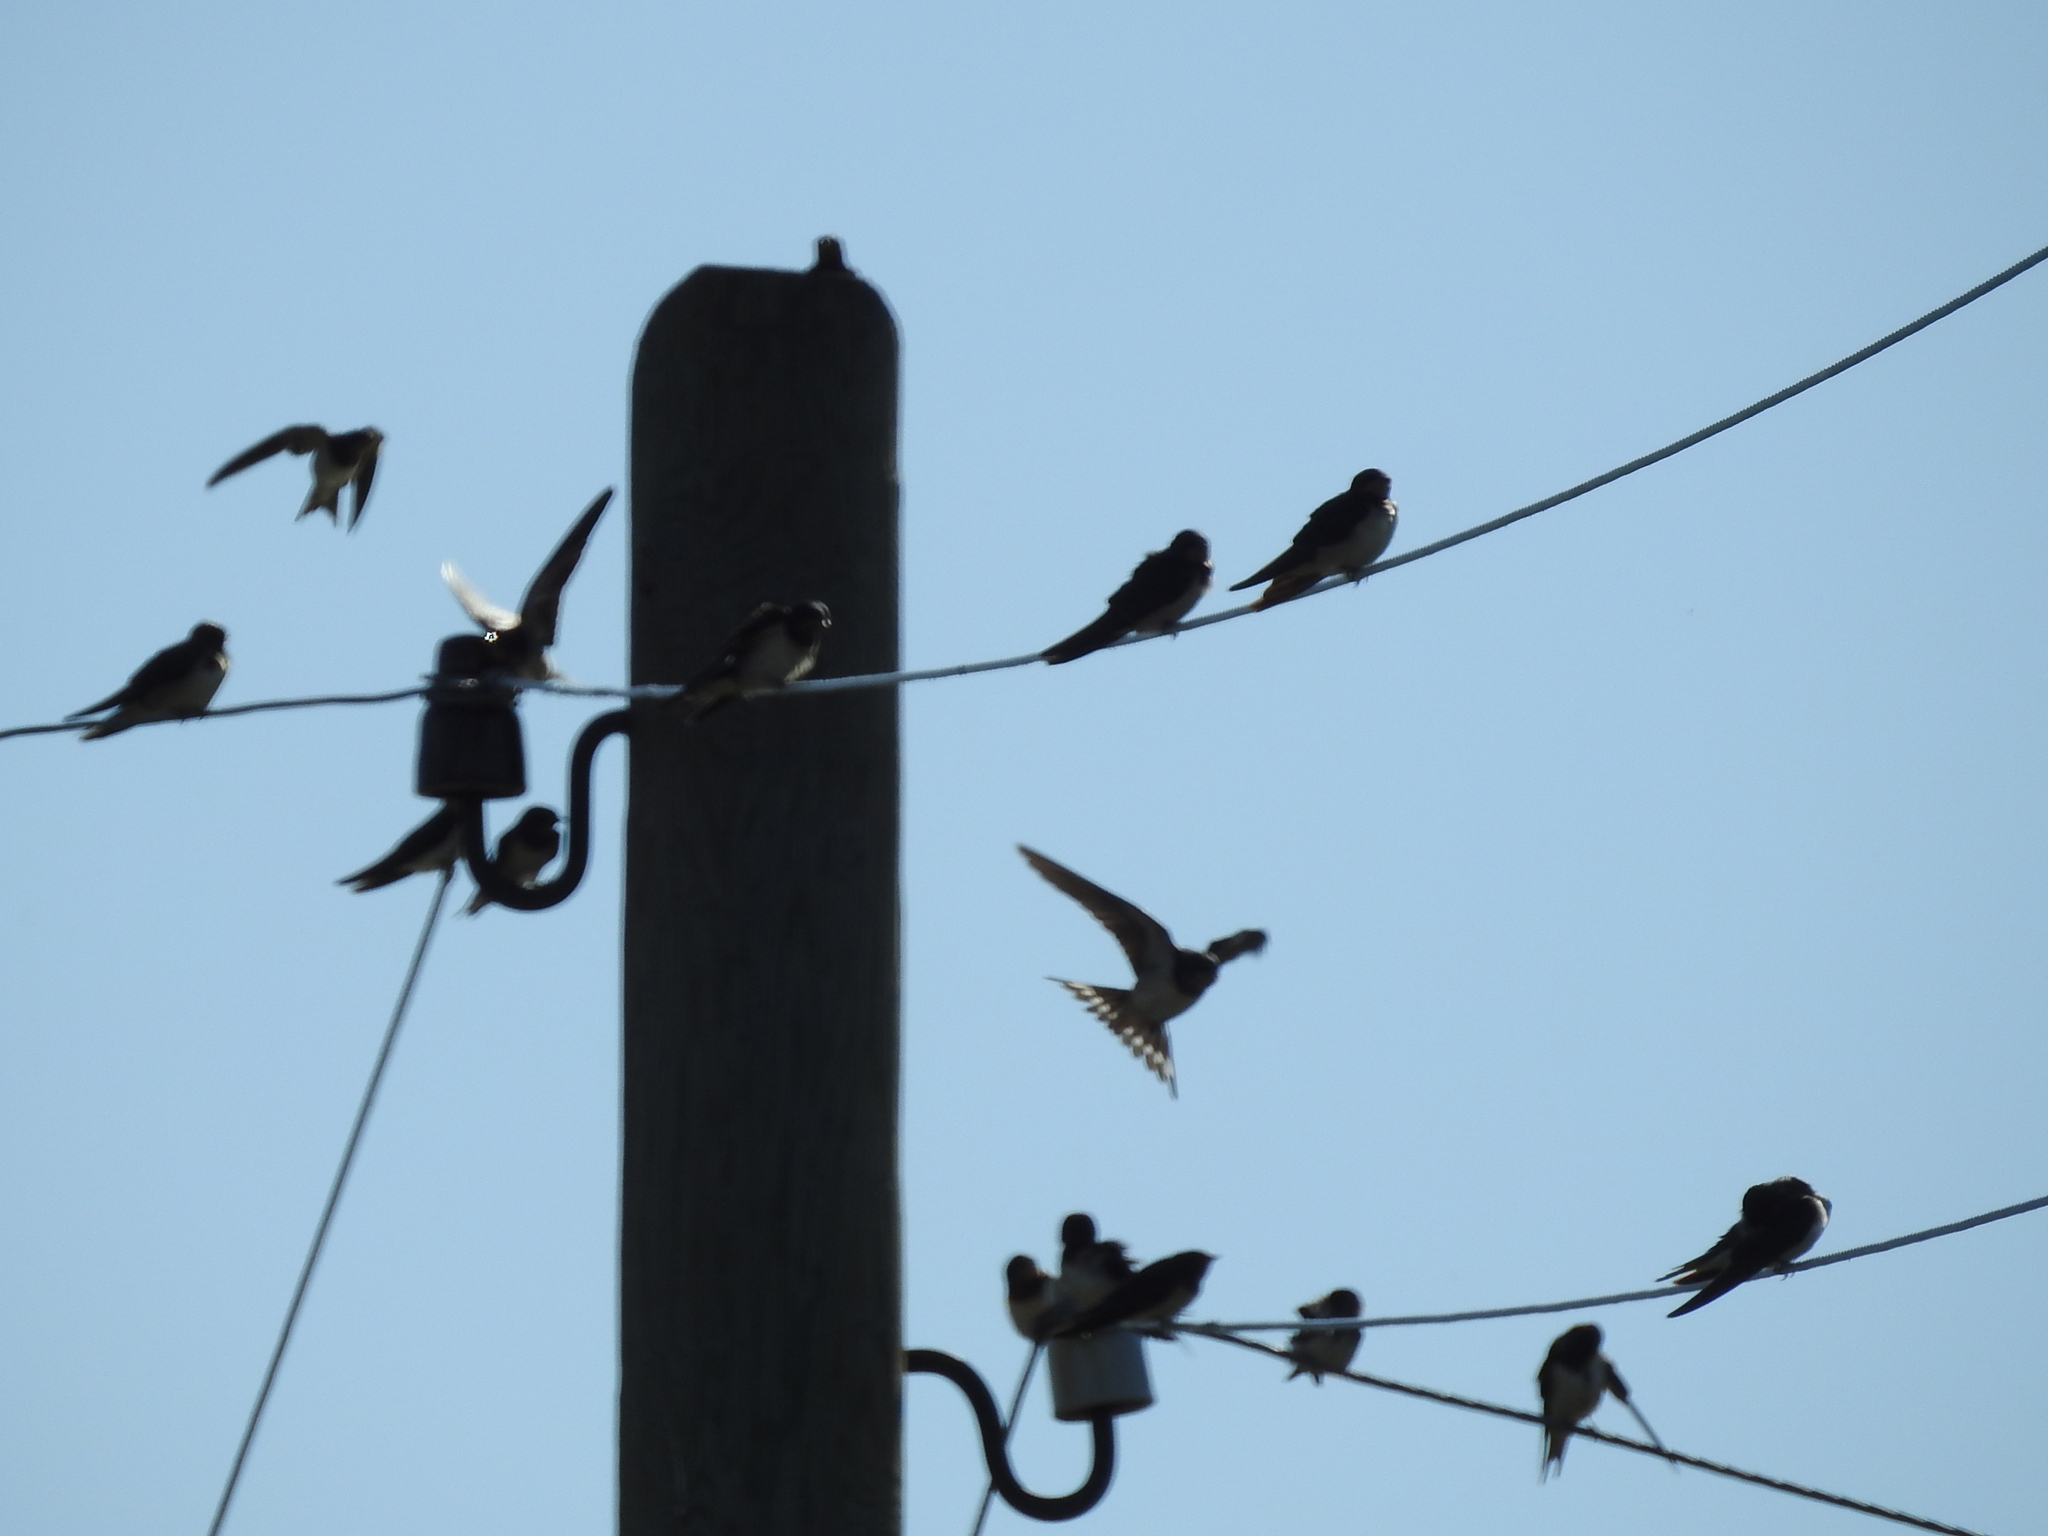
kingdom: Animalia
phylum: Chordata
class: Aves
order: Passeriformes
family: Hirundinidae
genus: Hirundo
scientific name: Hirundo rustica
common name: Barn swallow
